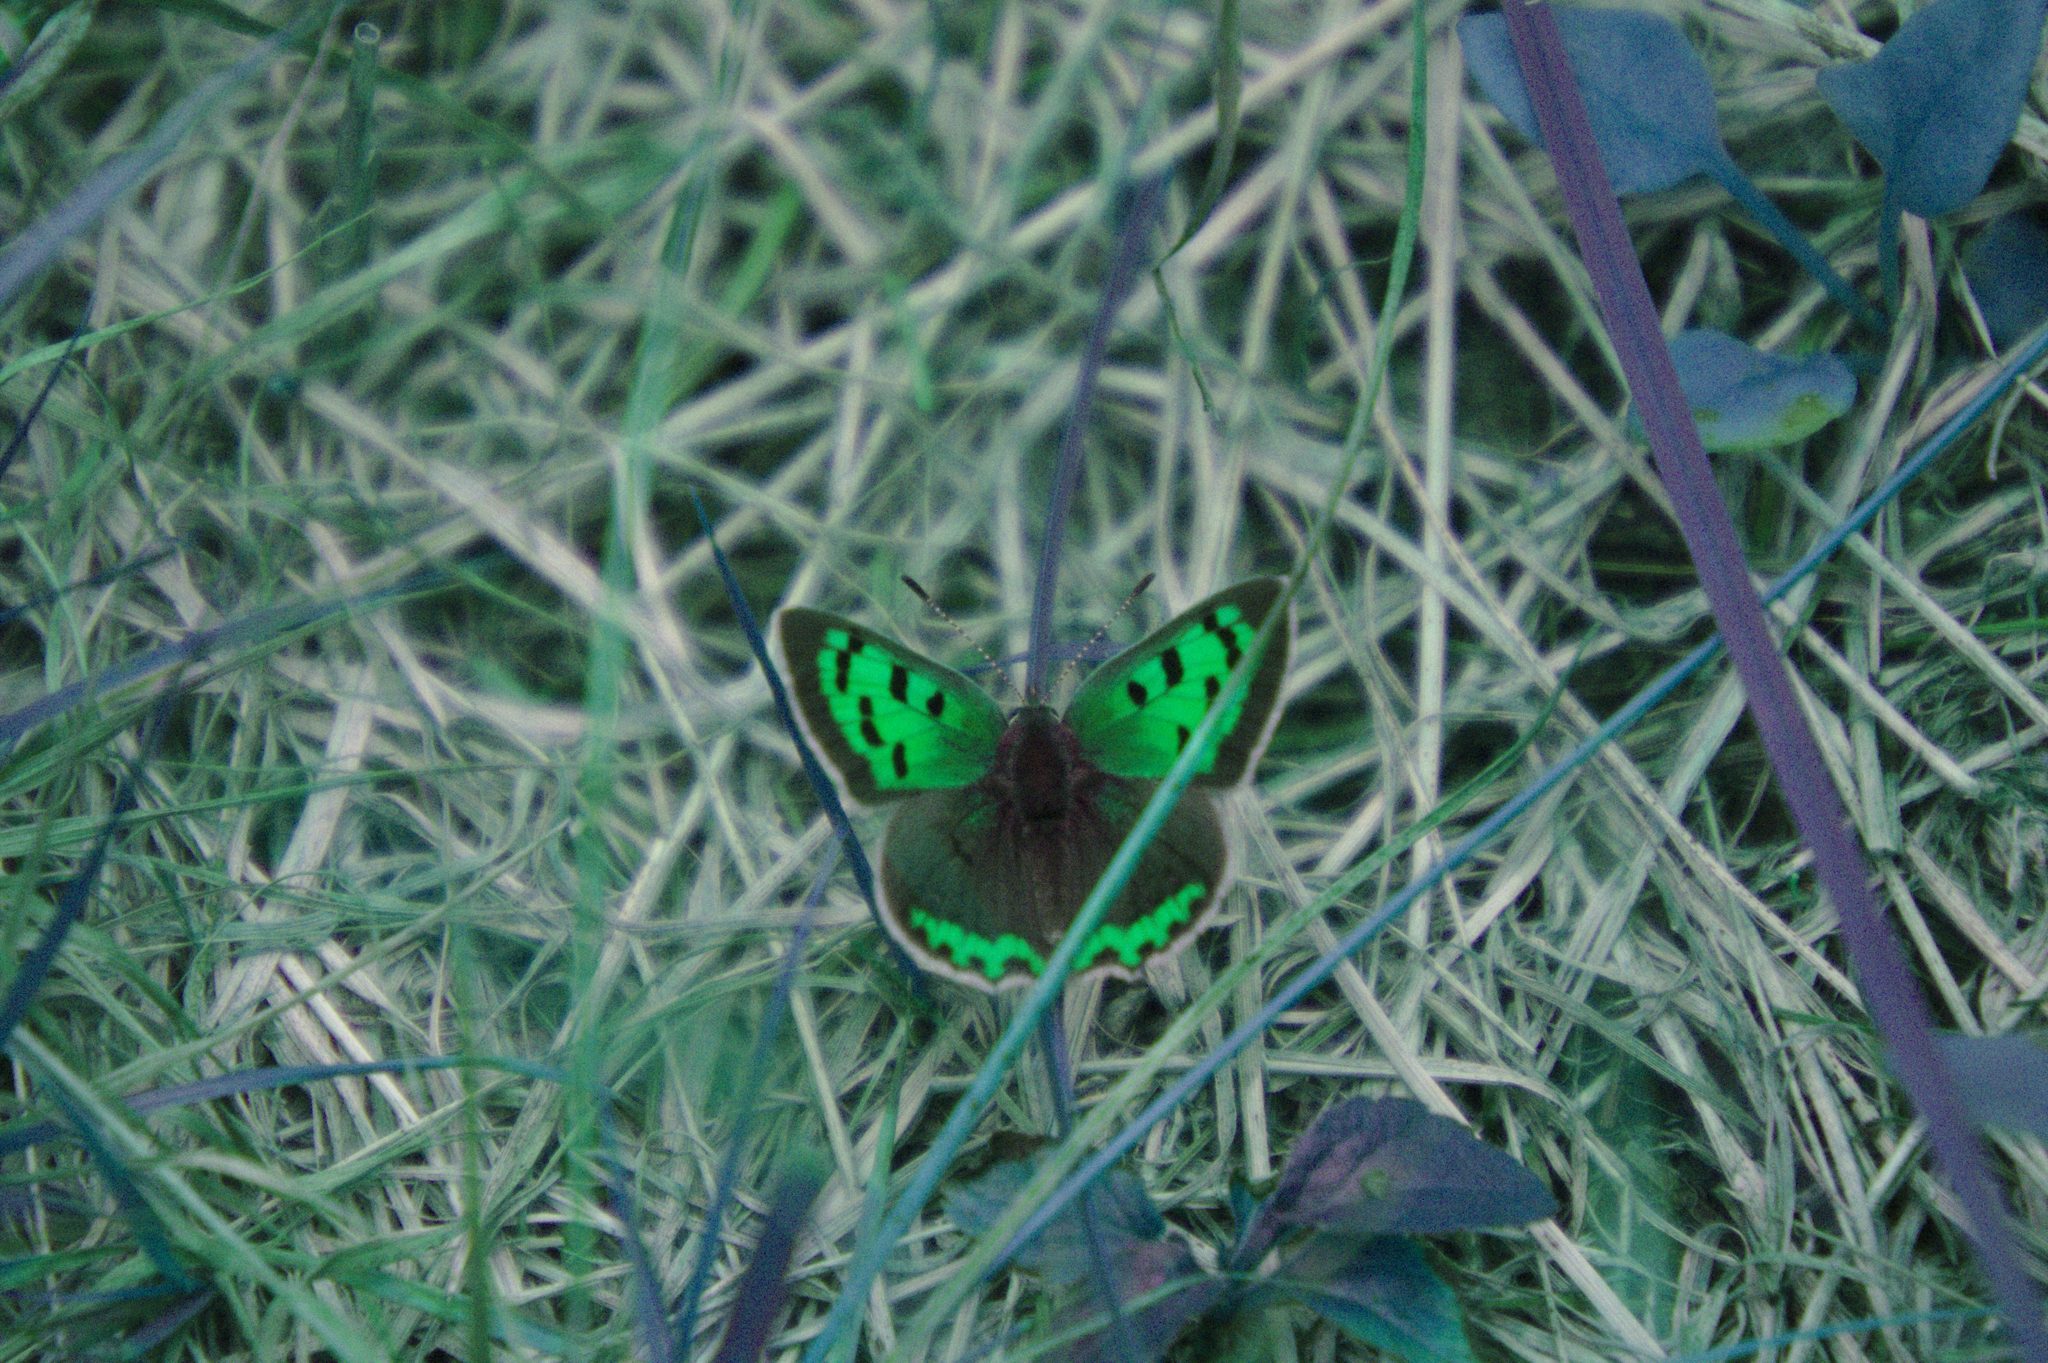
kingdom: Animalia
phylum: Arthropoda
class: Insecta
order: Lepidoptera
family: Lycaenidae
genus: Lycaena
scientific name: Lycaena hypophlaeas
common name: American copper
